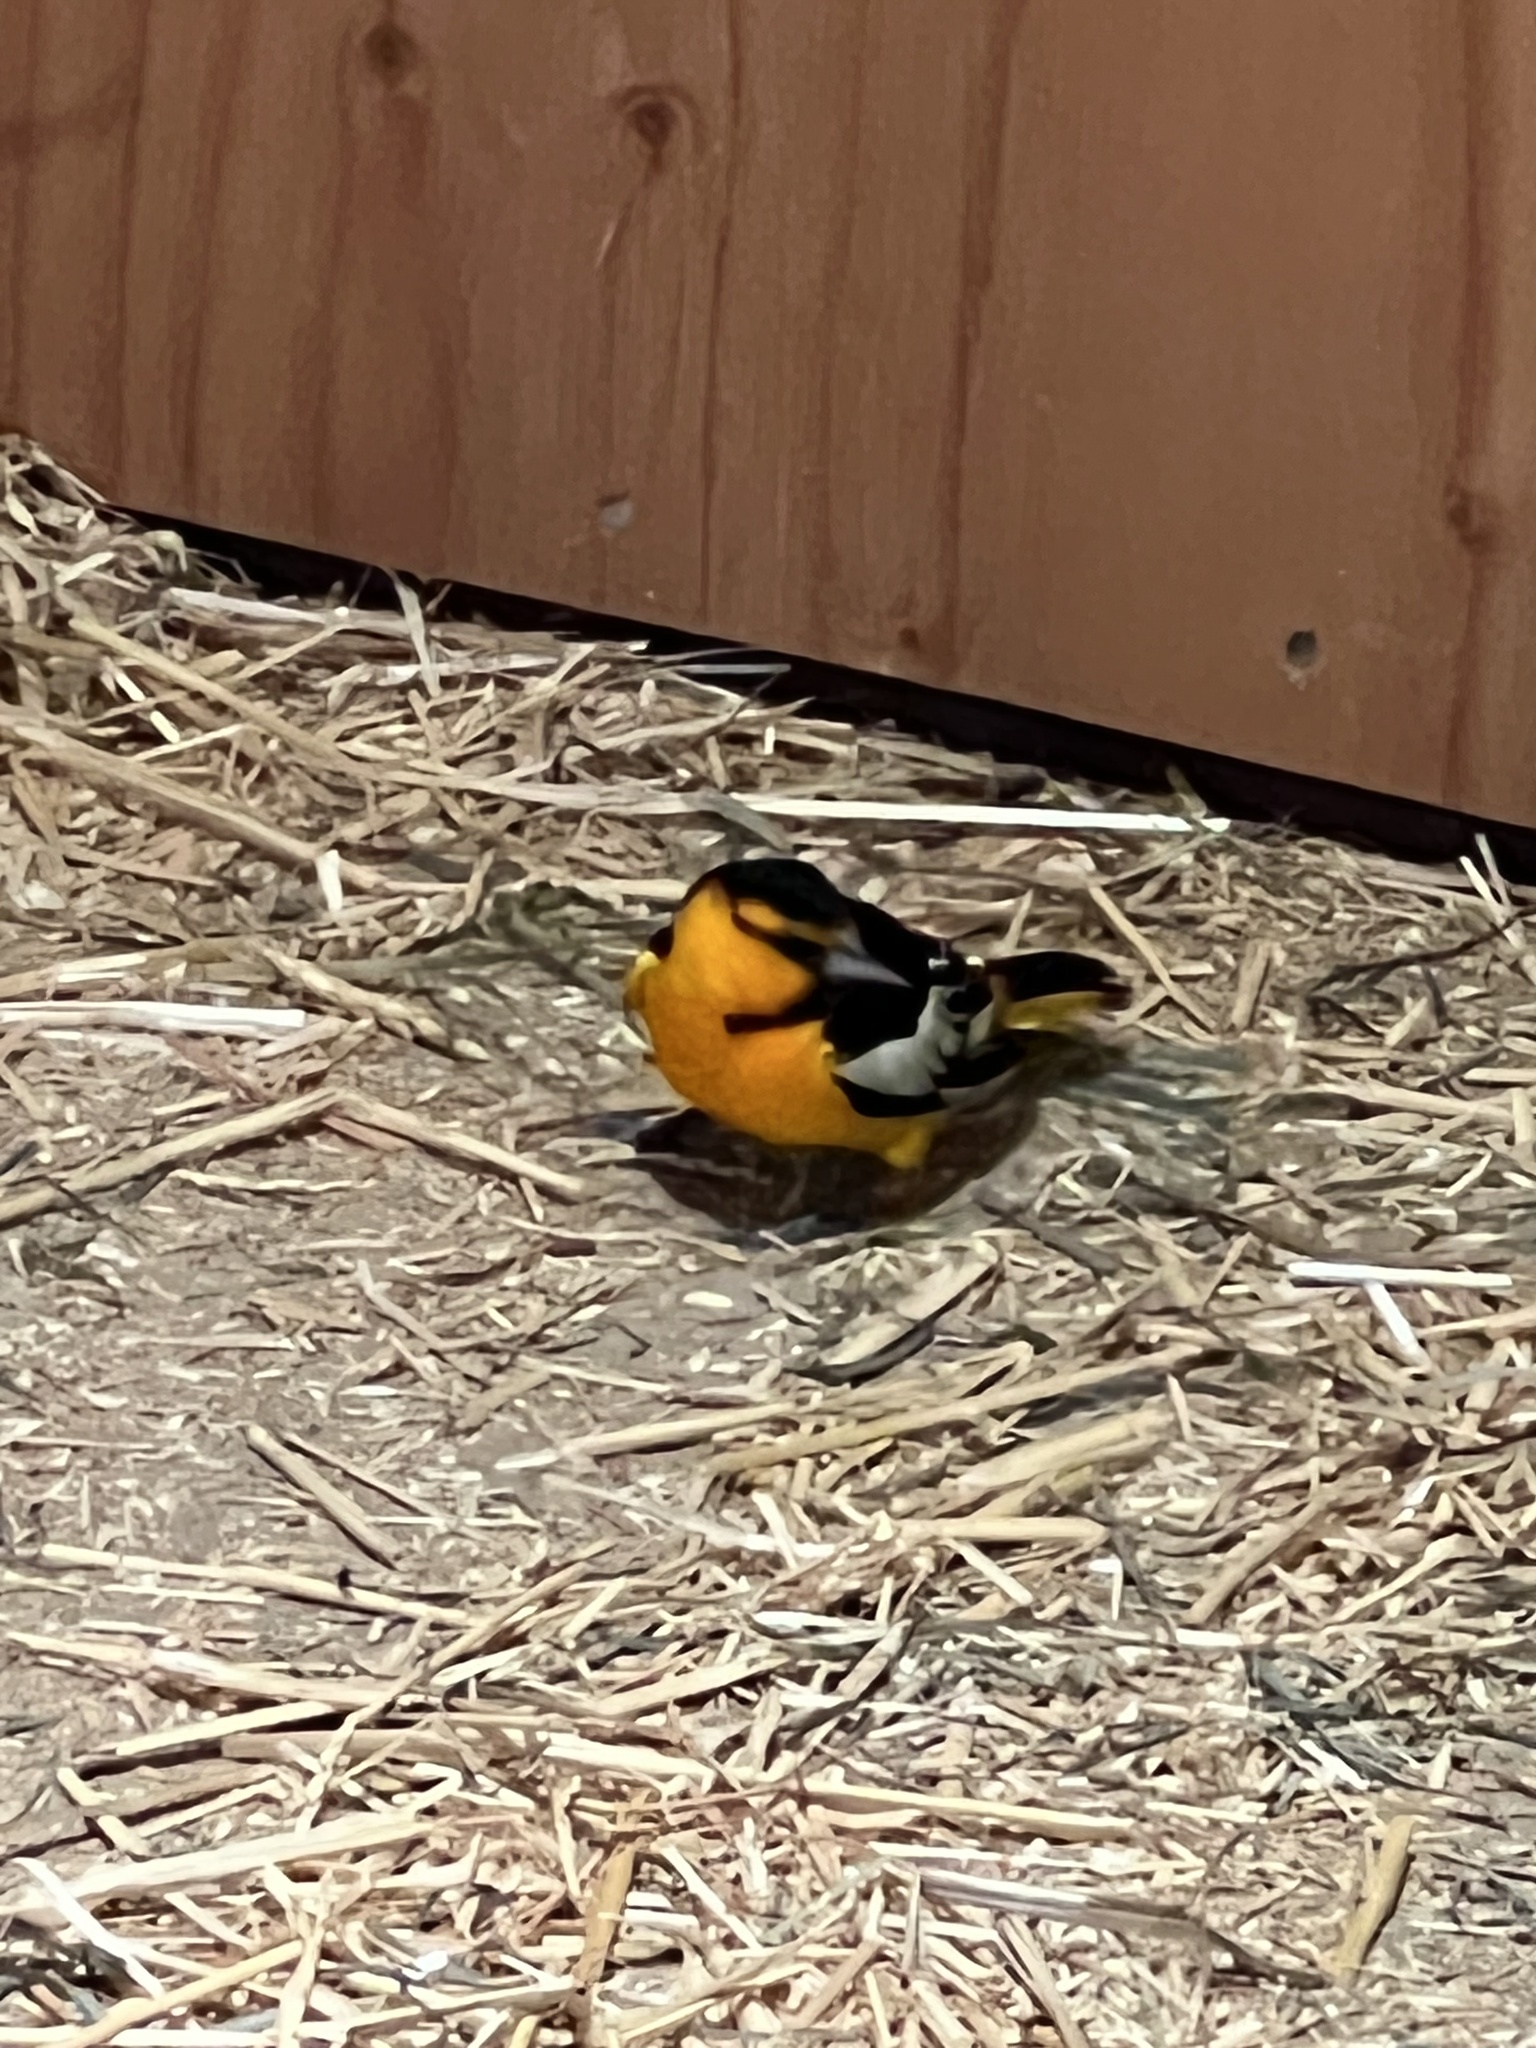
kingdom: Animalia
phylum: Chordata
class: Aves
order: Passeriformes
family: Icteridae
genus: Icterus
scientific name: Icterus bullockii
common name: Bullock's oriole
